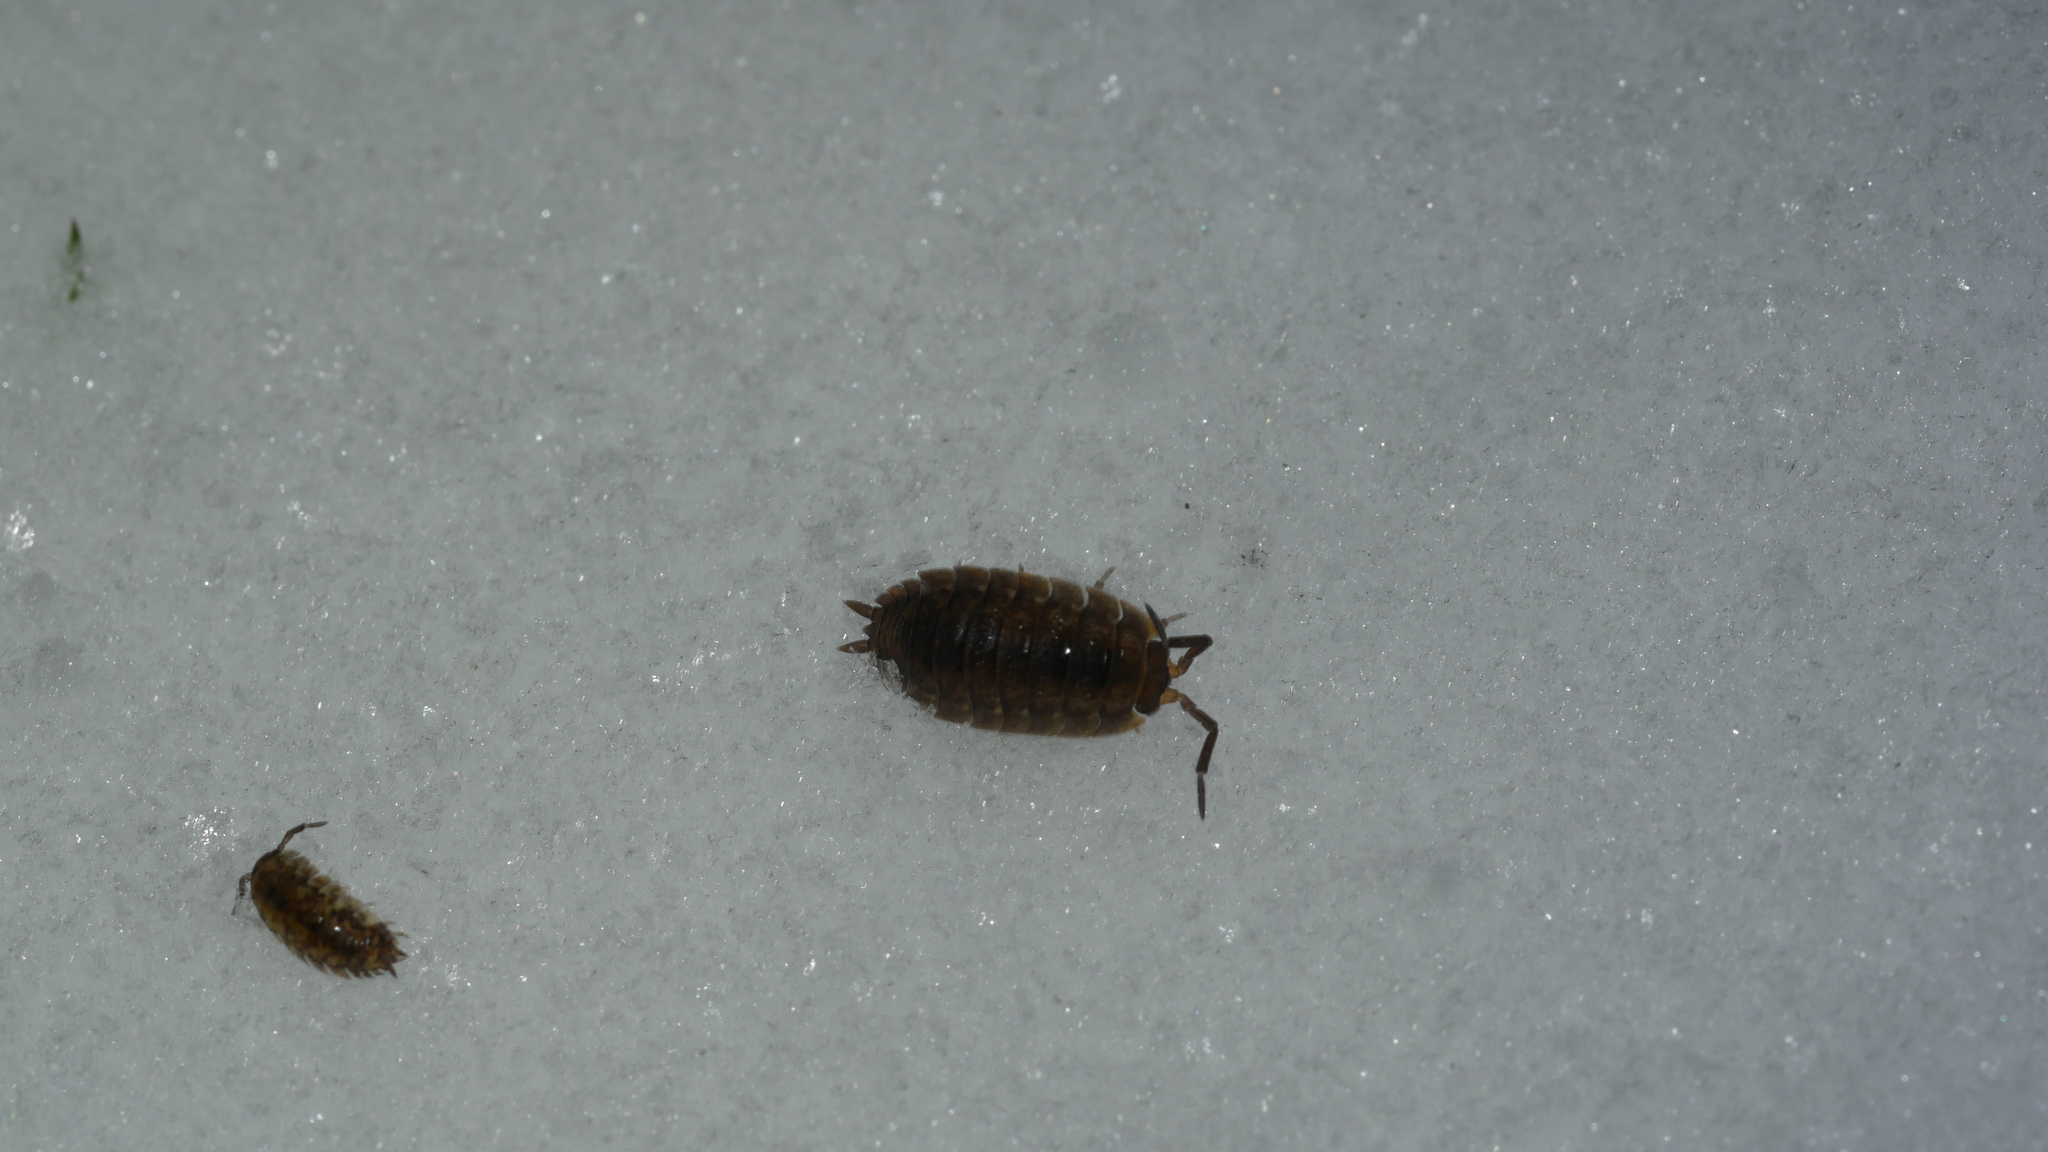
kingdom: Animalia
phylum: Arthropoda
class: Malacostraca
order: Isopoda
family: Porcellionidae
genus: Porcellio
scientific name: Porcellio scaber
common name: Common rough woodlouse
